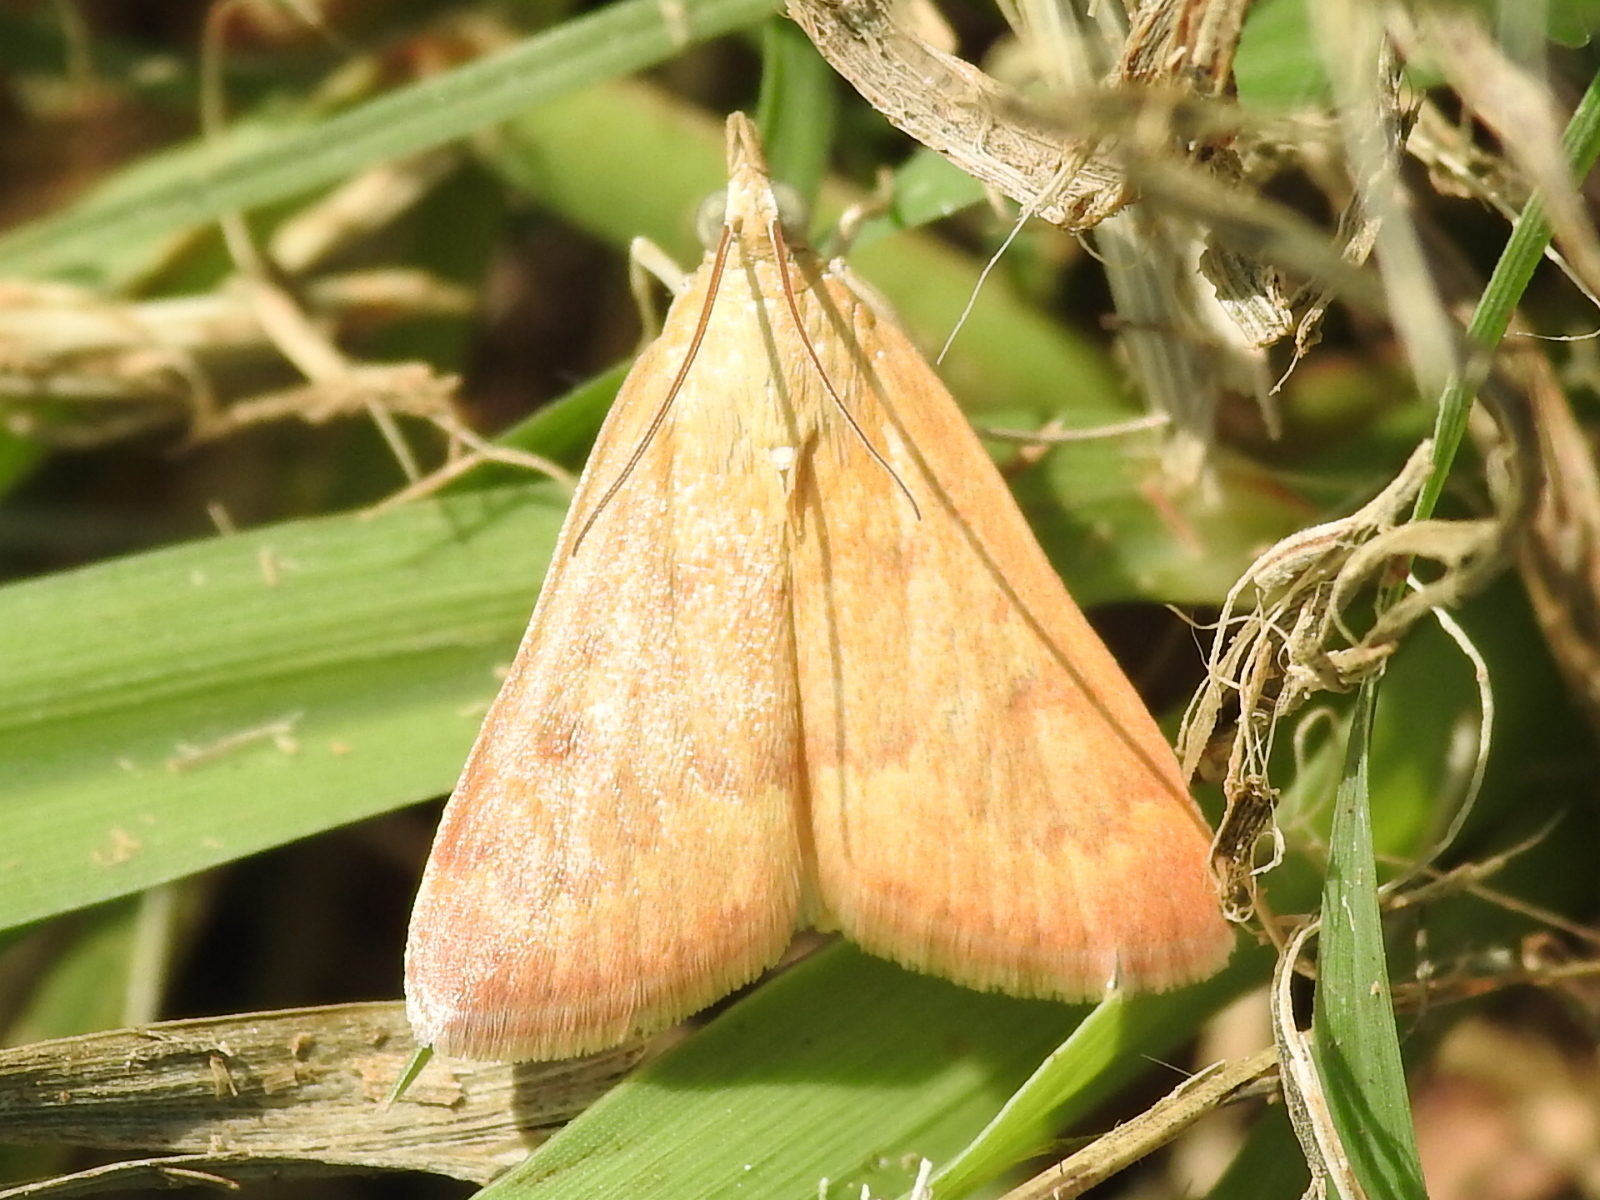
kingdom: Animalia
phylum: Arthropoda
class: Insecta
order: Lepidoptera
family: Crambidae
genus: Achyra
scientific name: Achyra rantalis
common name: Garden webworm
